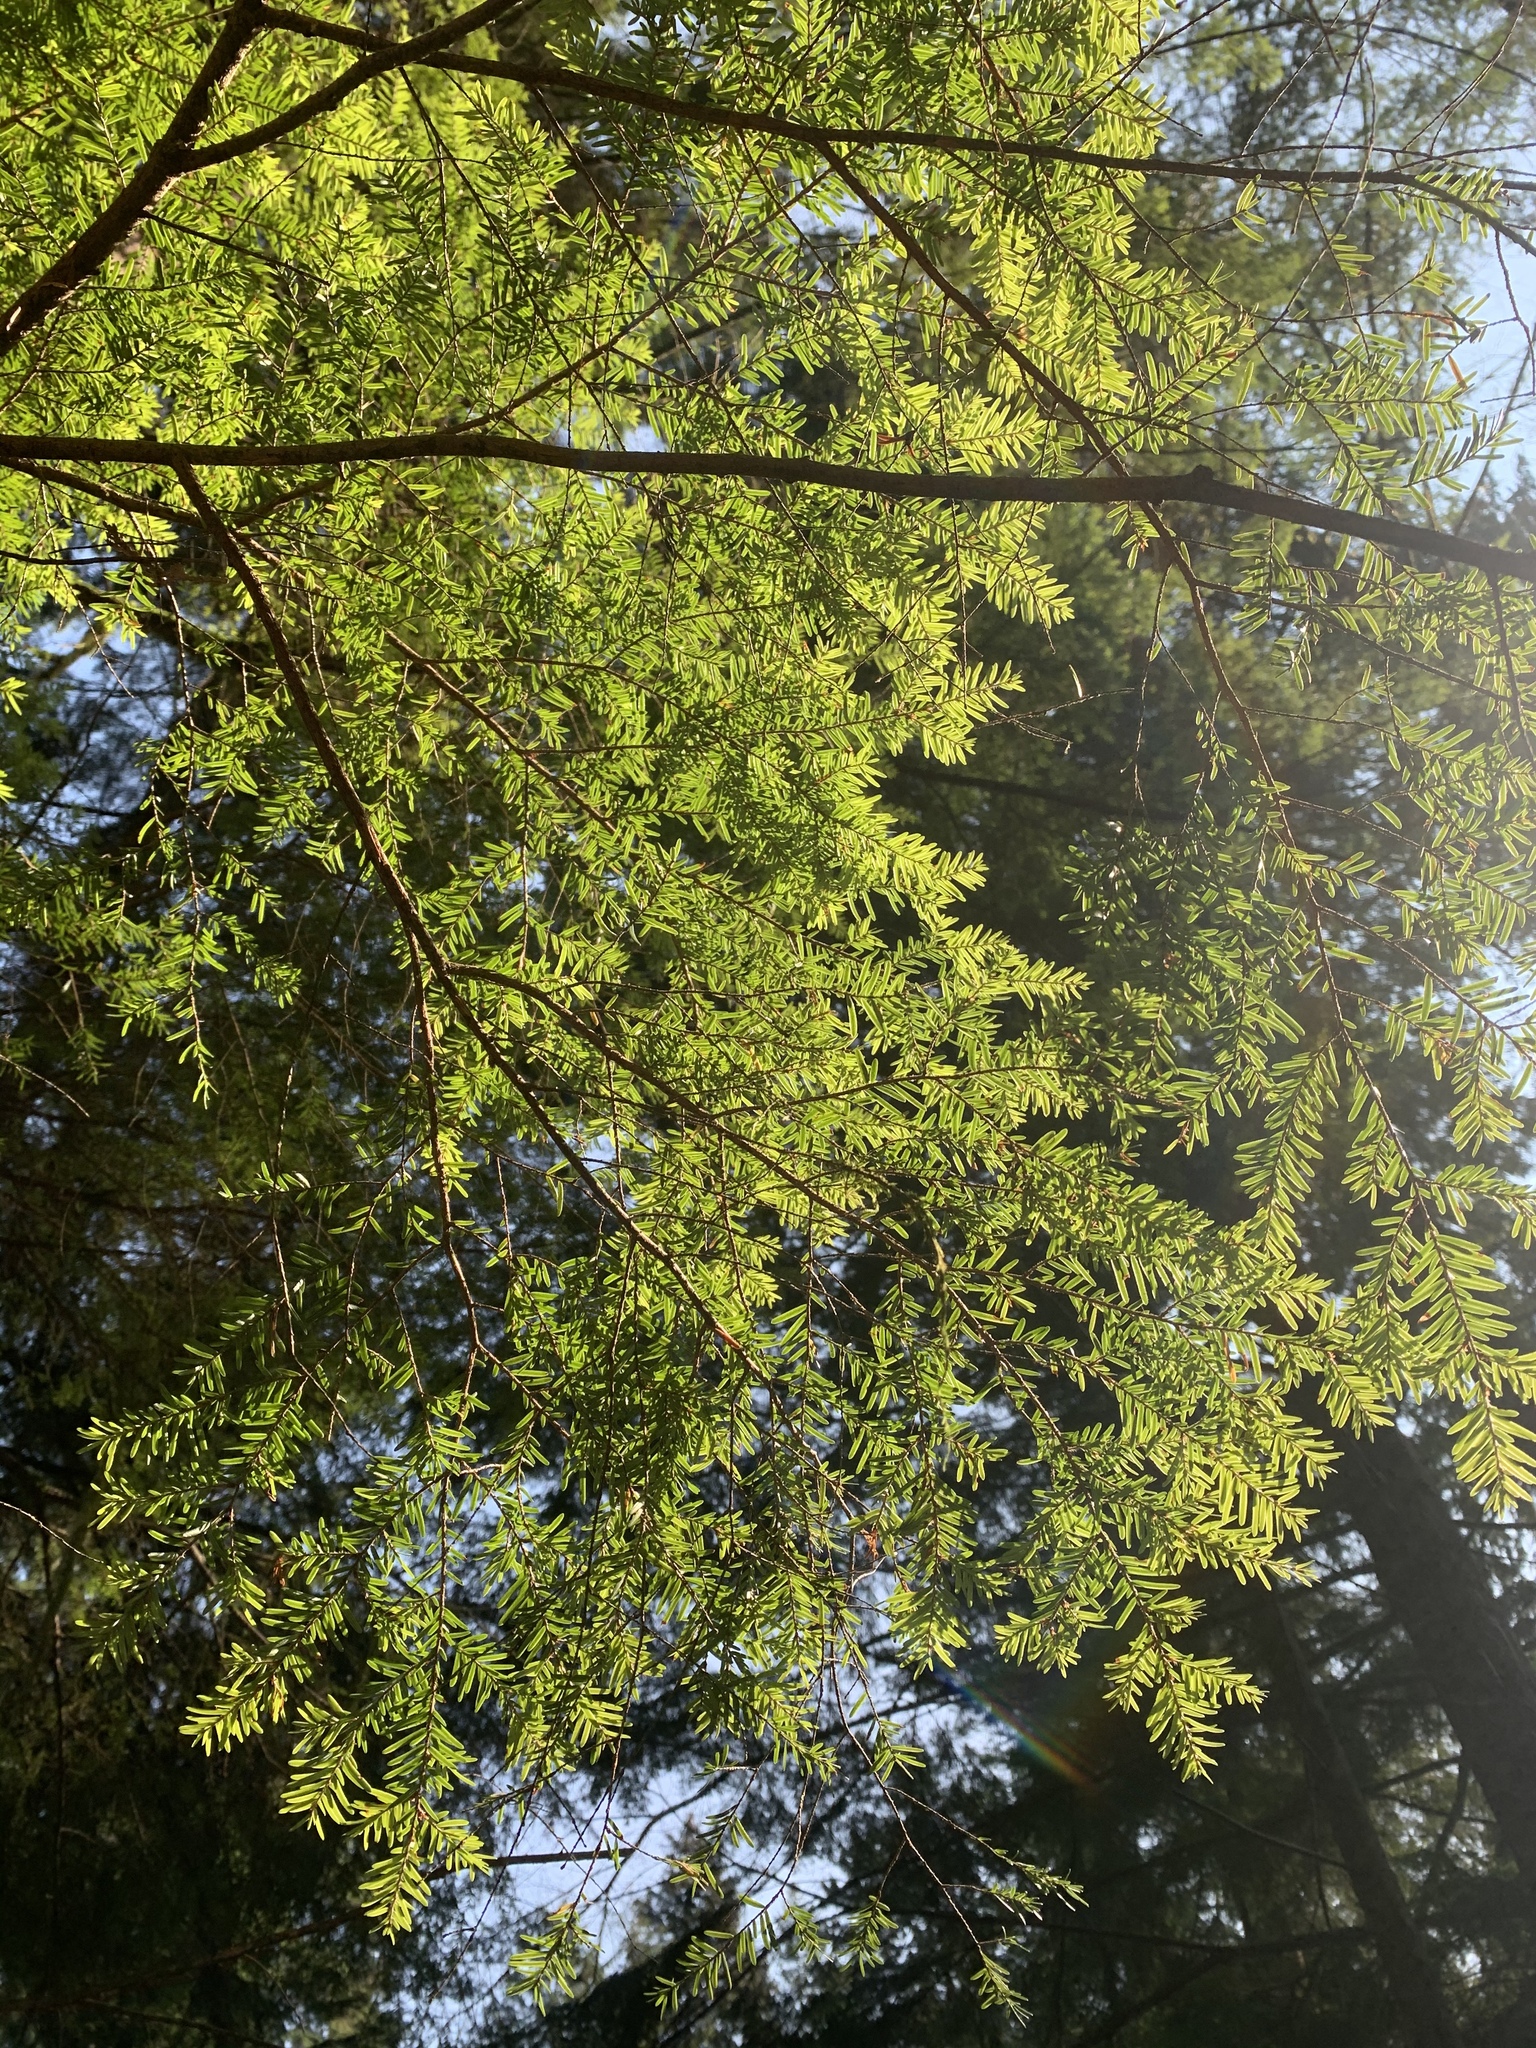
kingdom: Plantae
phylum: Tracheophyta
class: Pinopsida
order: Pinales
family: Pinaceae
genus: Tsuga
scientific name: Tsuga heterophylla
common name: Western hemlock
